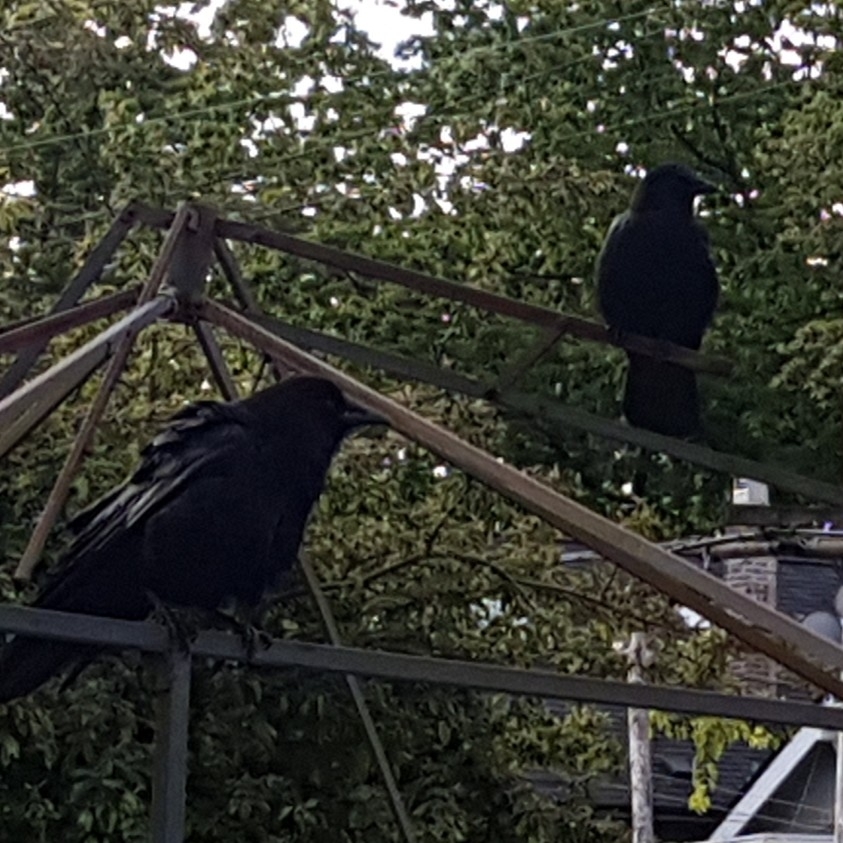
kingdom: Animalia
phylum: Chordata
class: Aves
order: Passeriformes
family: Corvidae
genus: Corvus
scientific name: Corvus brachyrhynchos
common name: American crow
